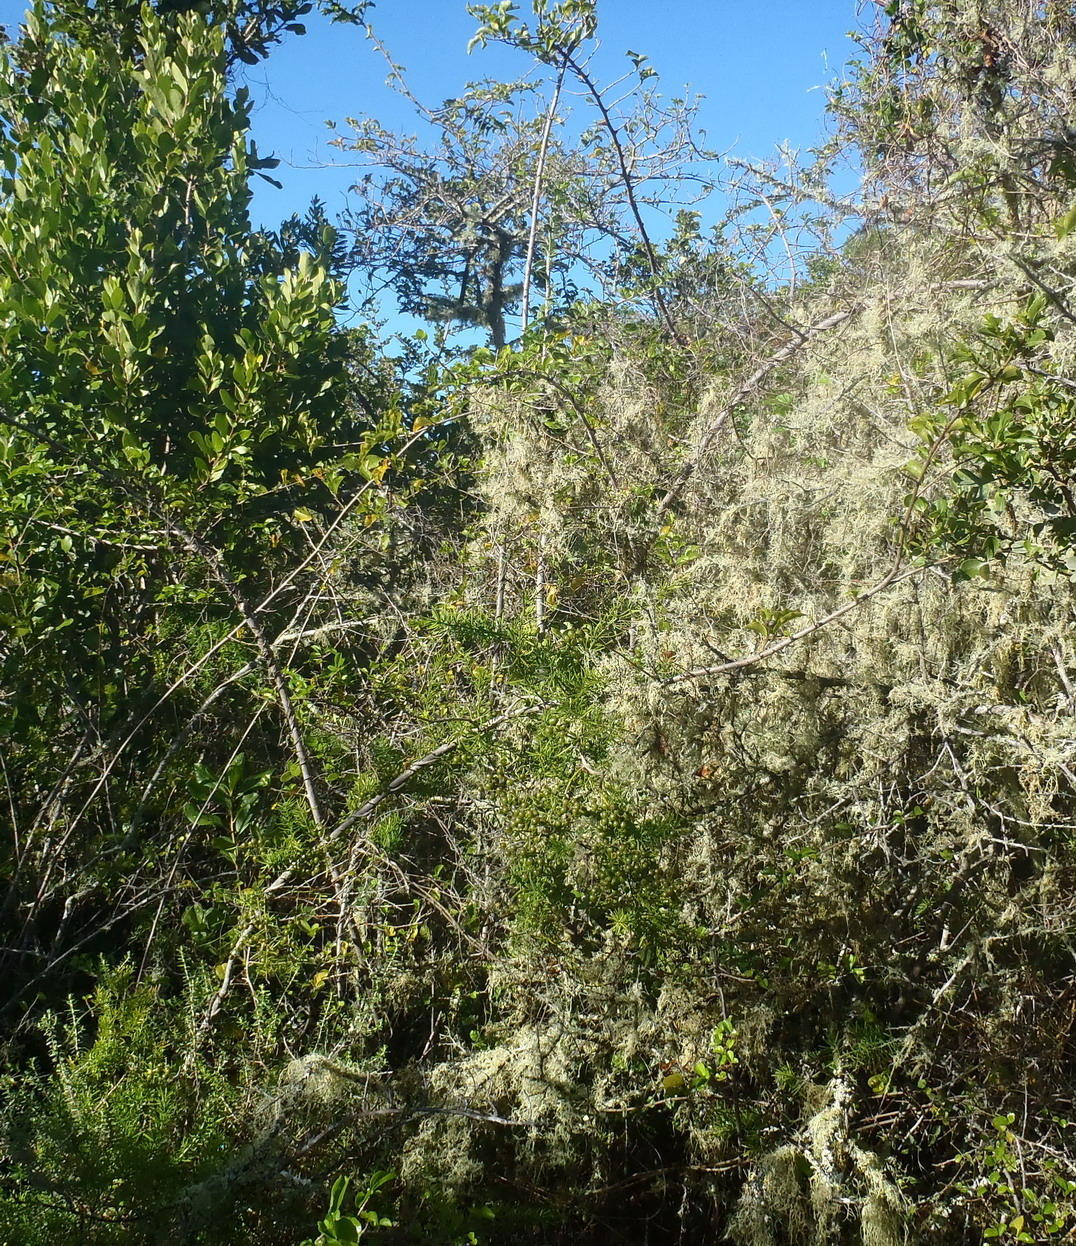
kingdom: Plantae
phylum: Tracheophyta
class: Magnoliopsida
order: Malvales
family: Malvaceae
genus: Grewia
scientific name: Grewia occidentalis
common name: Crossberry
